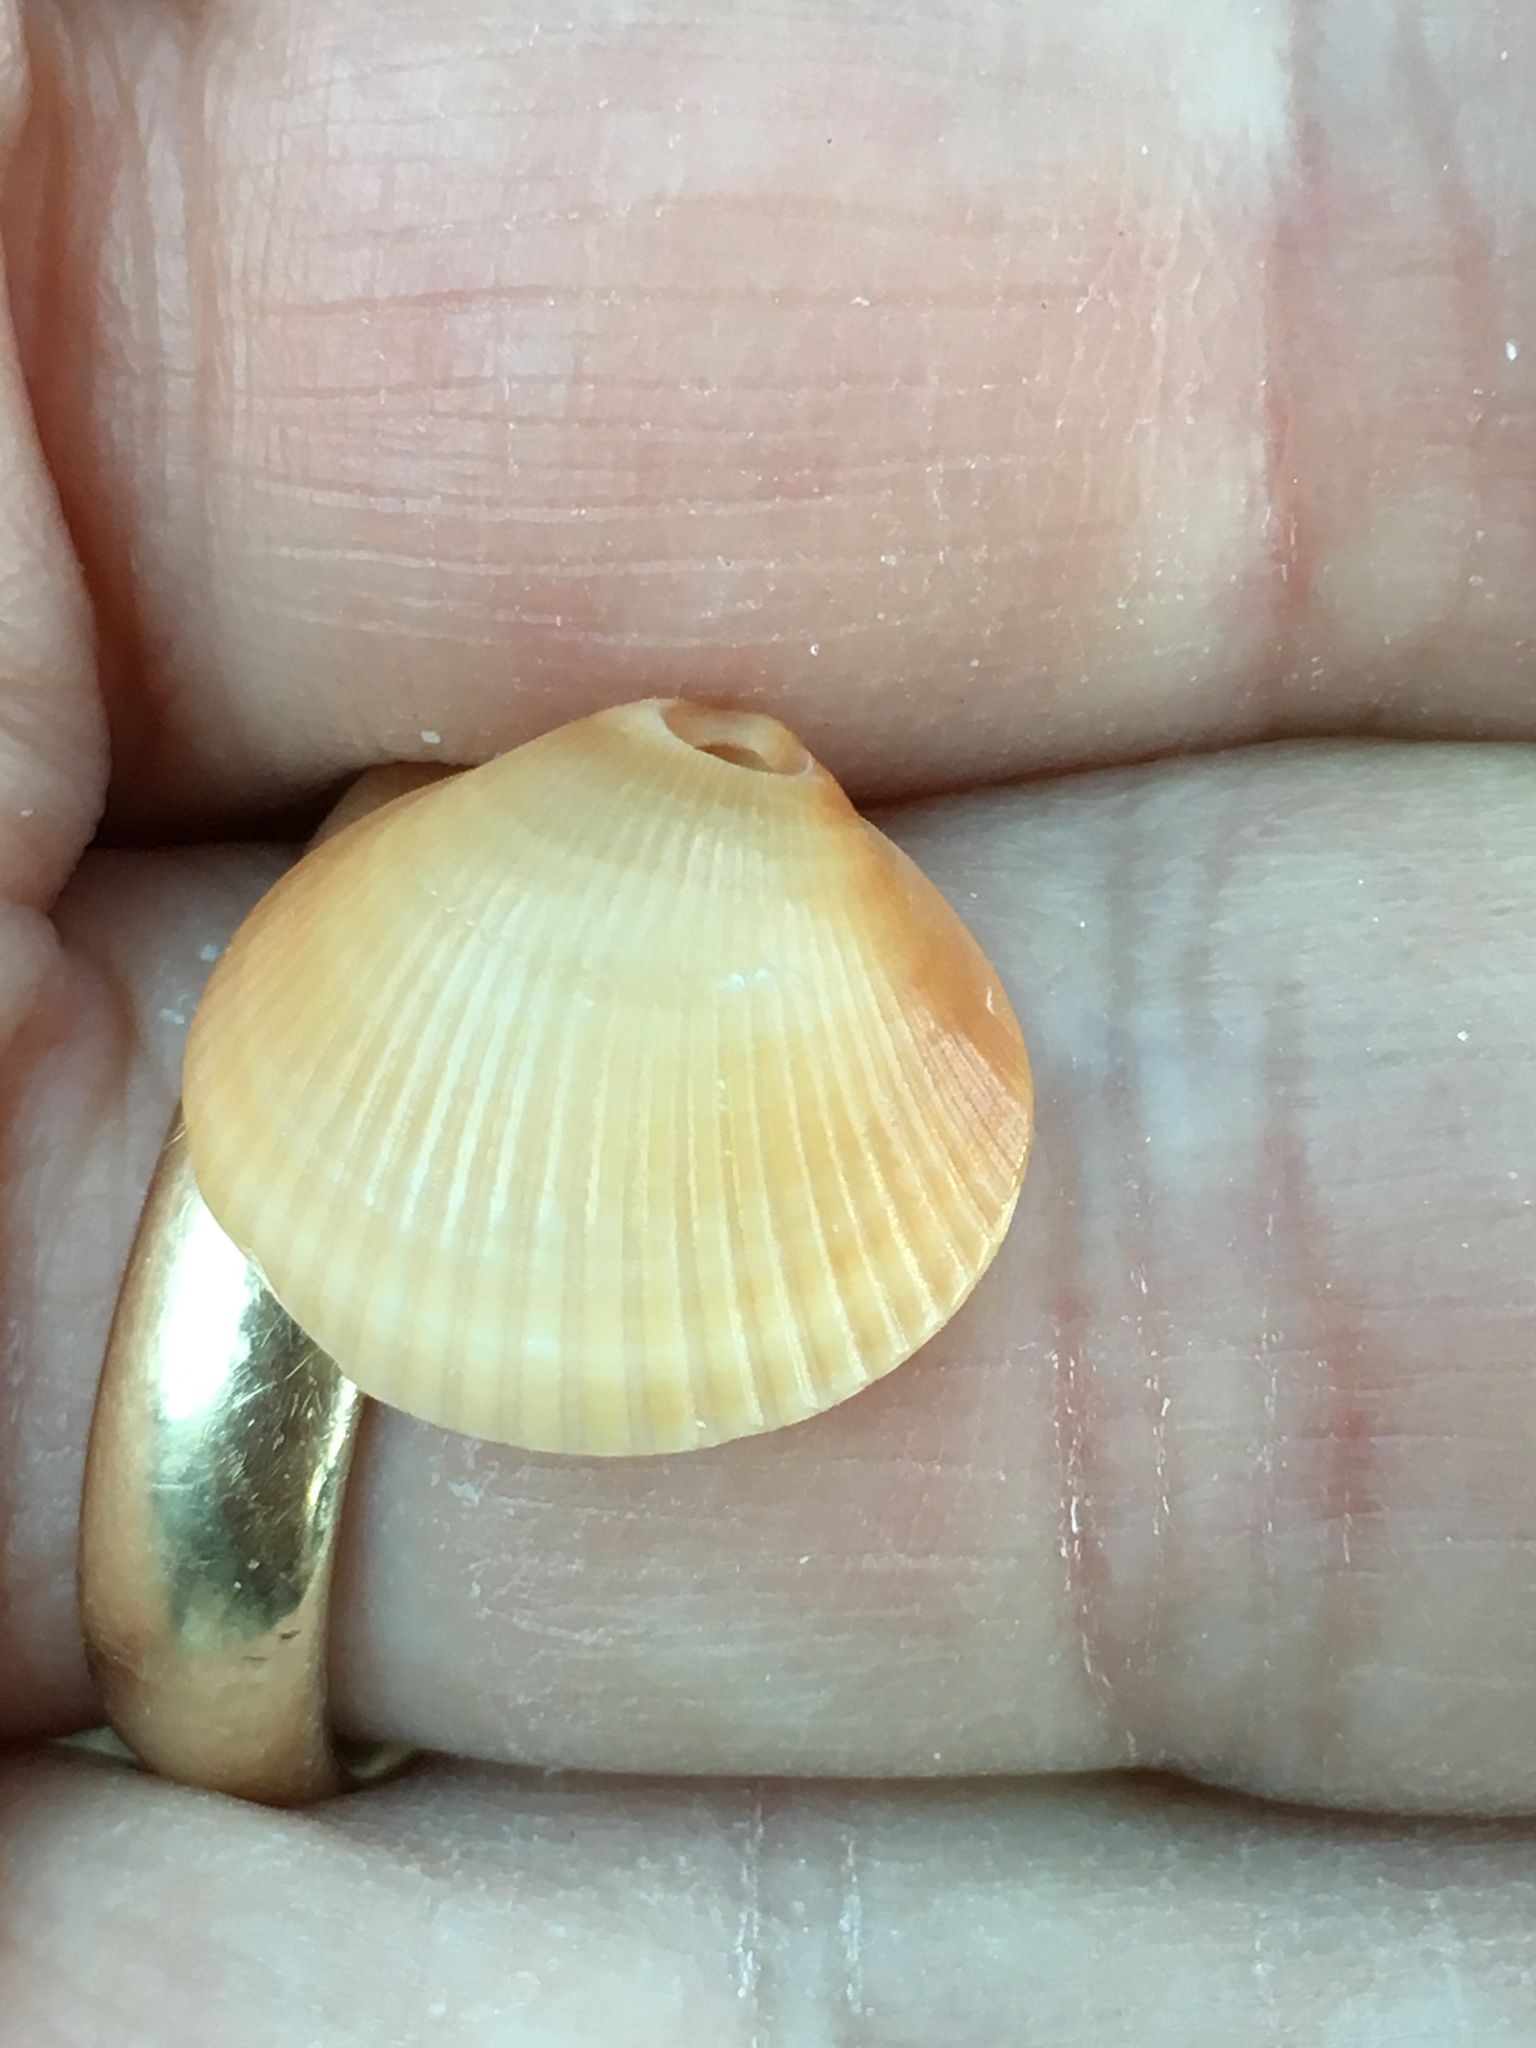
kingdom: Animalia
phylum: Mollusca
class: Bivalvia
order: Arcida
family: Glycymerididae
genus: Glycymeris
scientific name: Glycymeris spectralis
